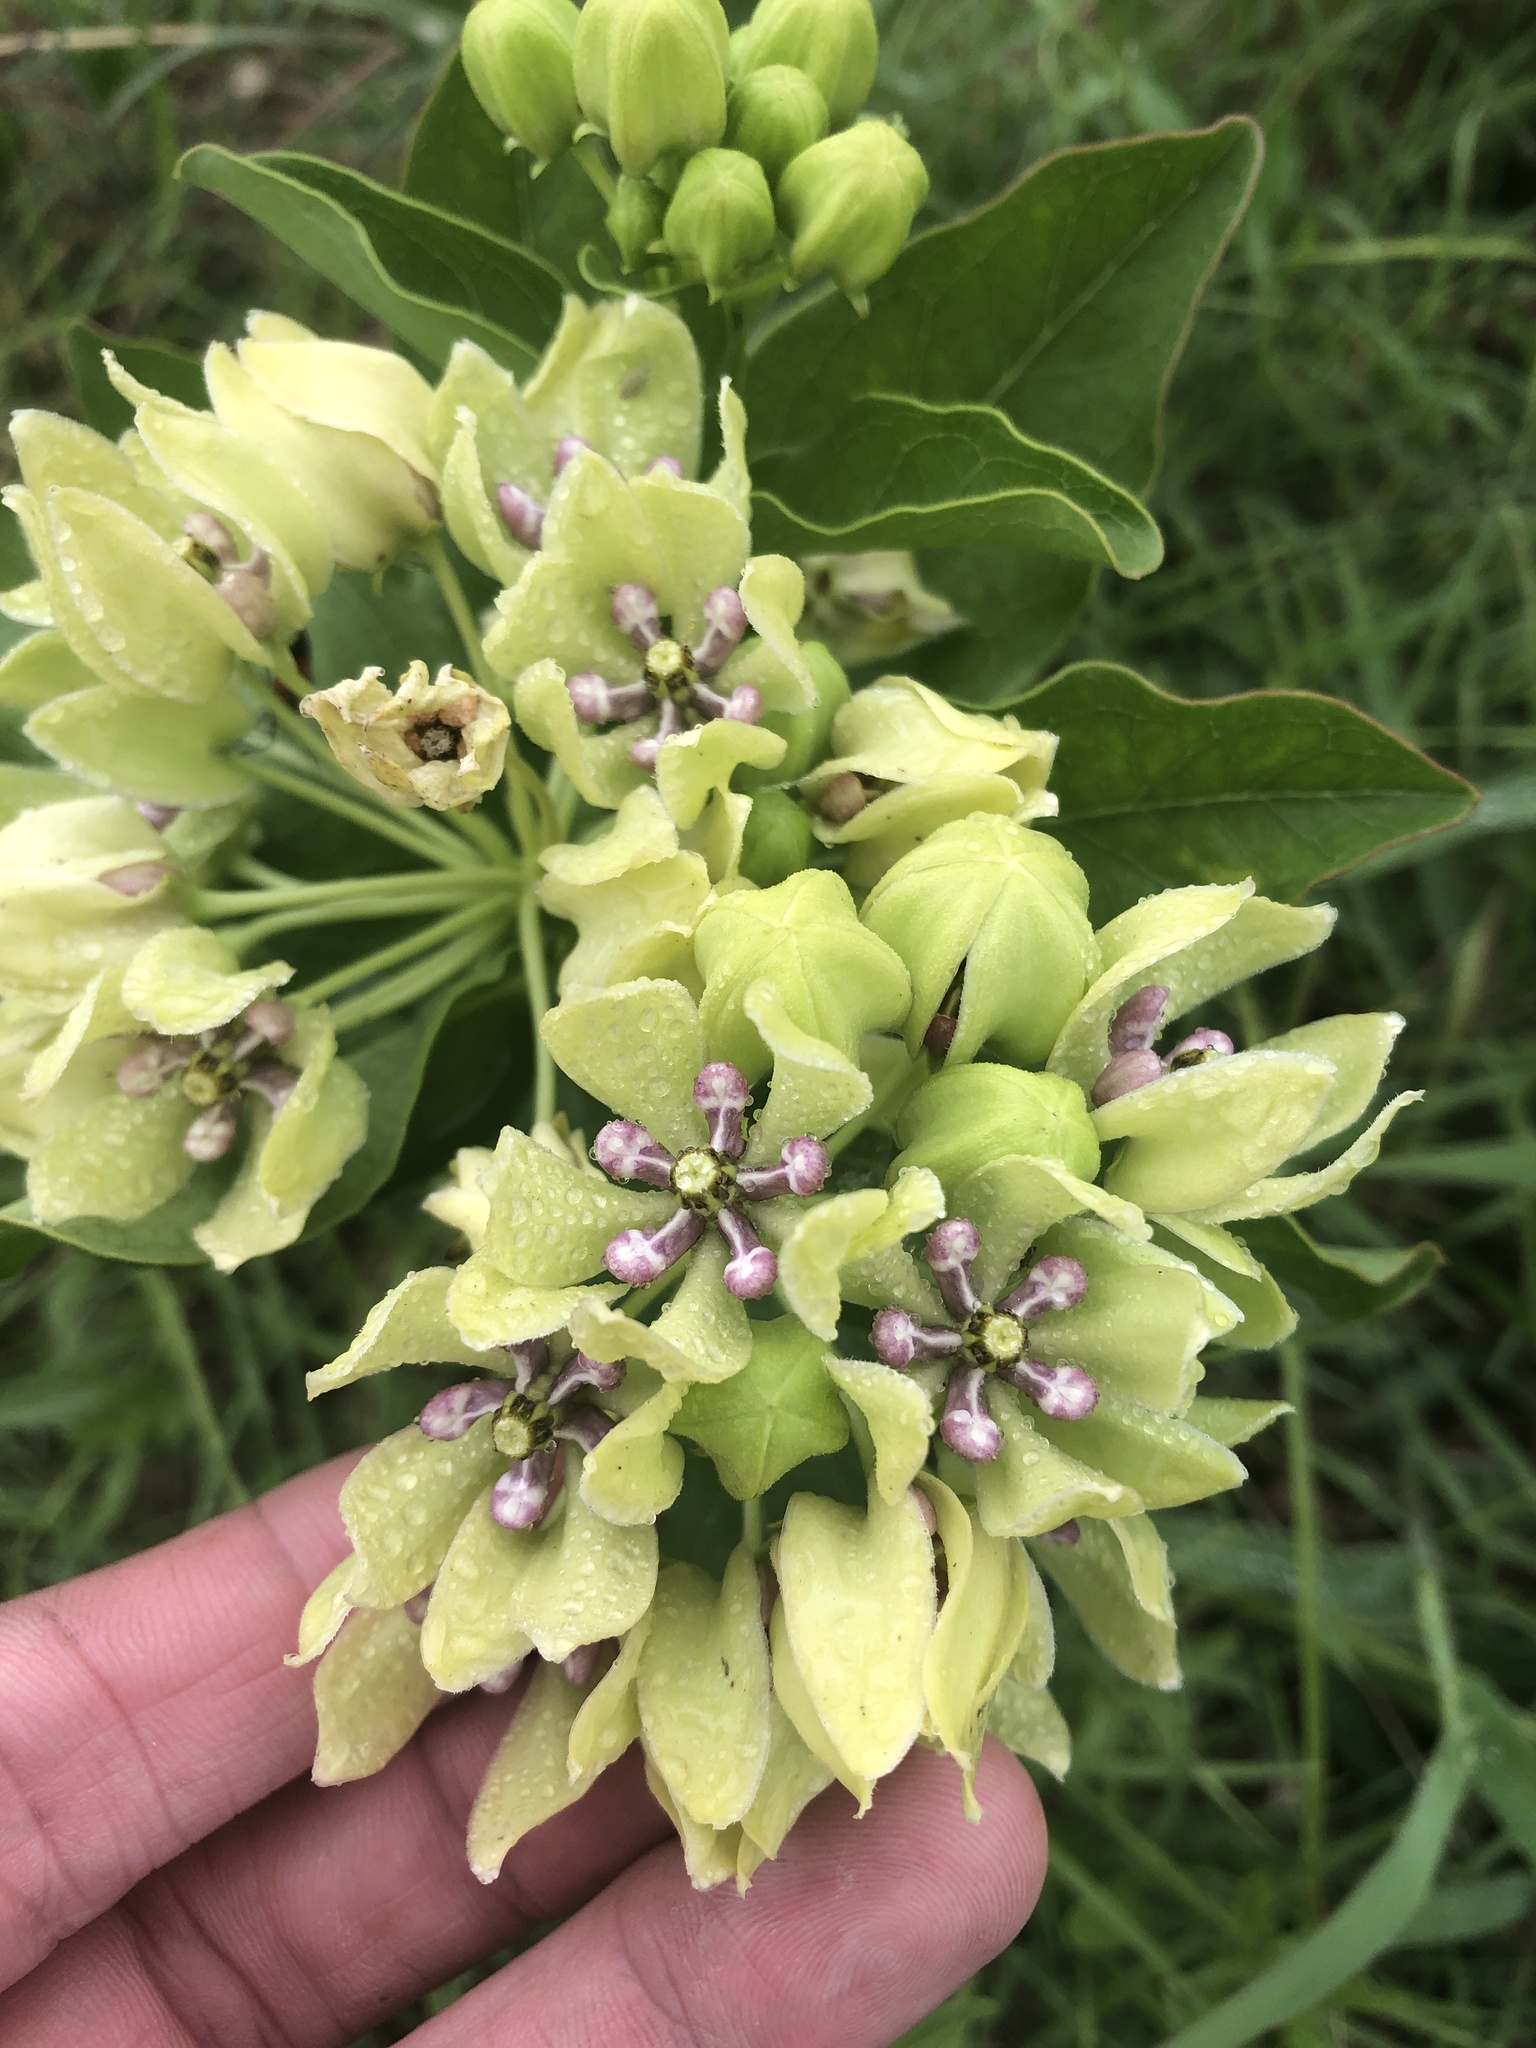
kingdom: Plantae
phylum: Tracheophyta
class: Magnoliopsida
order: Gentianales
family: Apocynaceae
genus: Asclepias
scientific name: Asclepias viridis
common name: Antelope-horns
